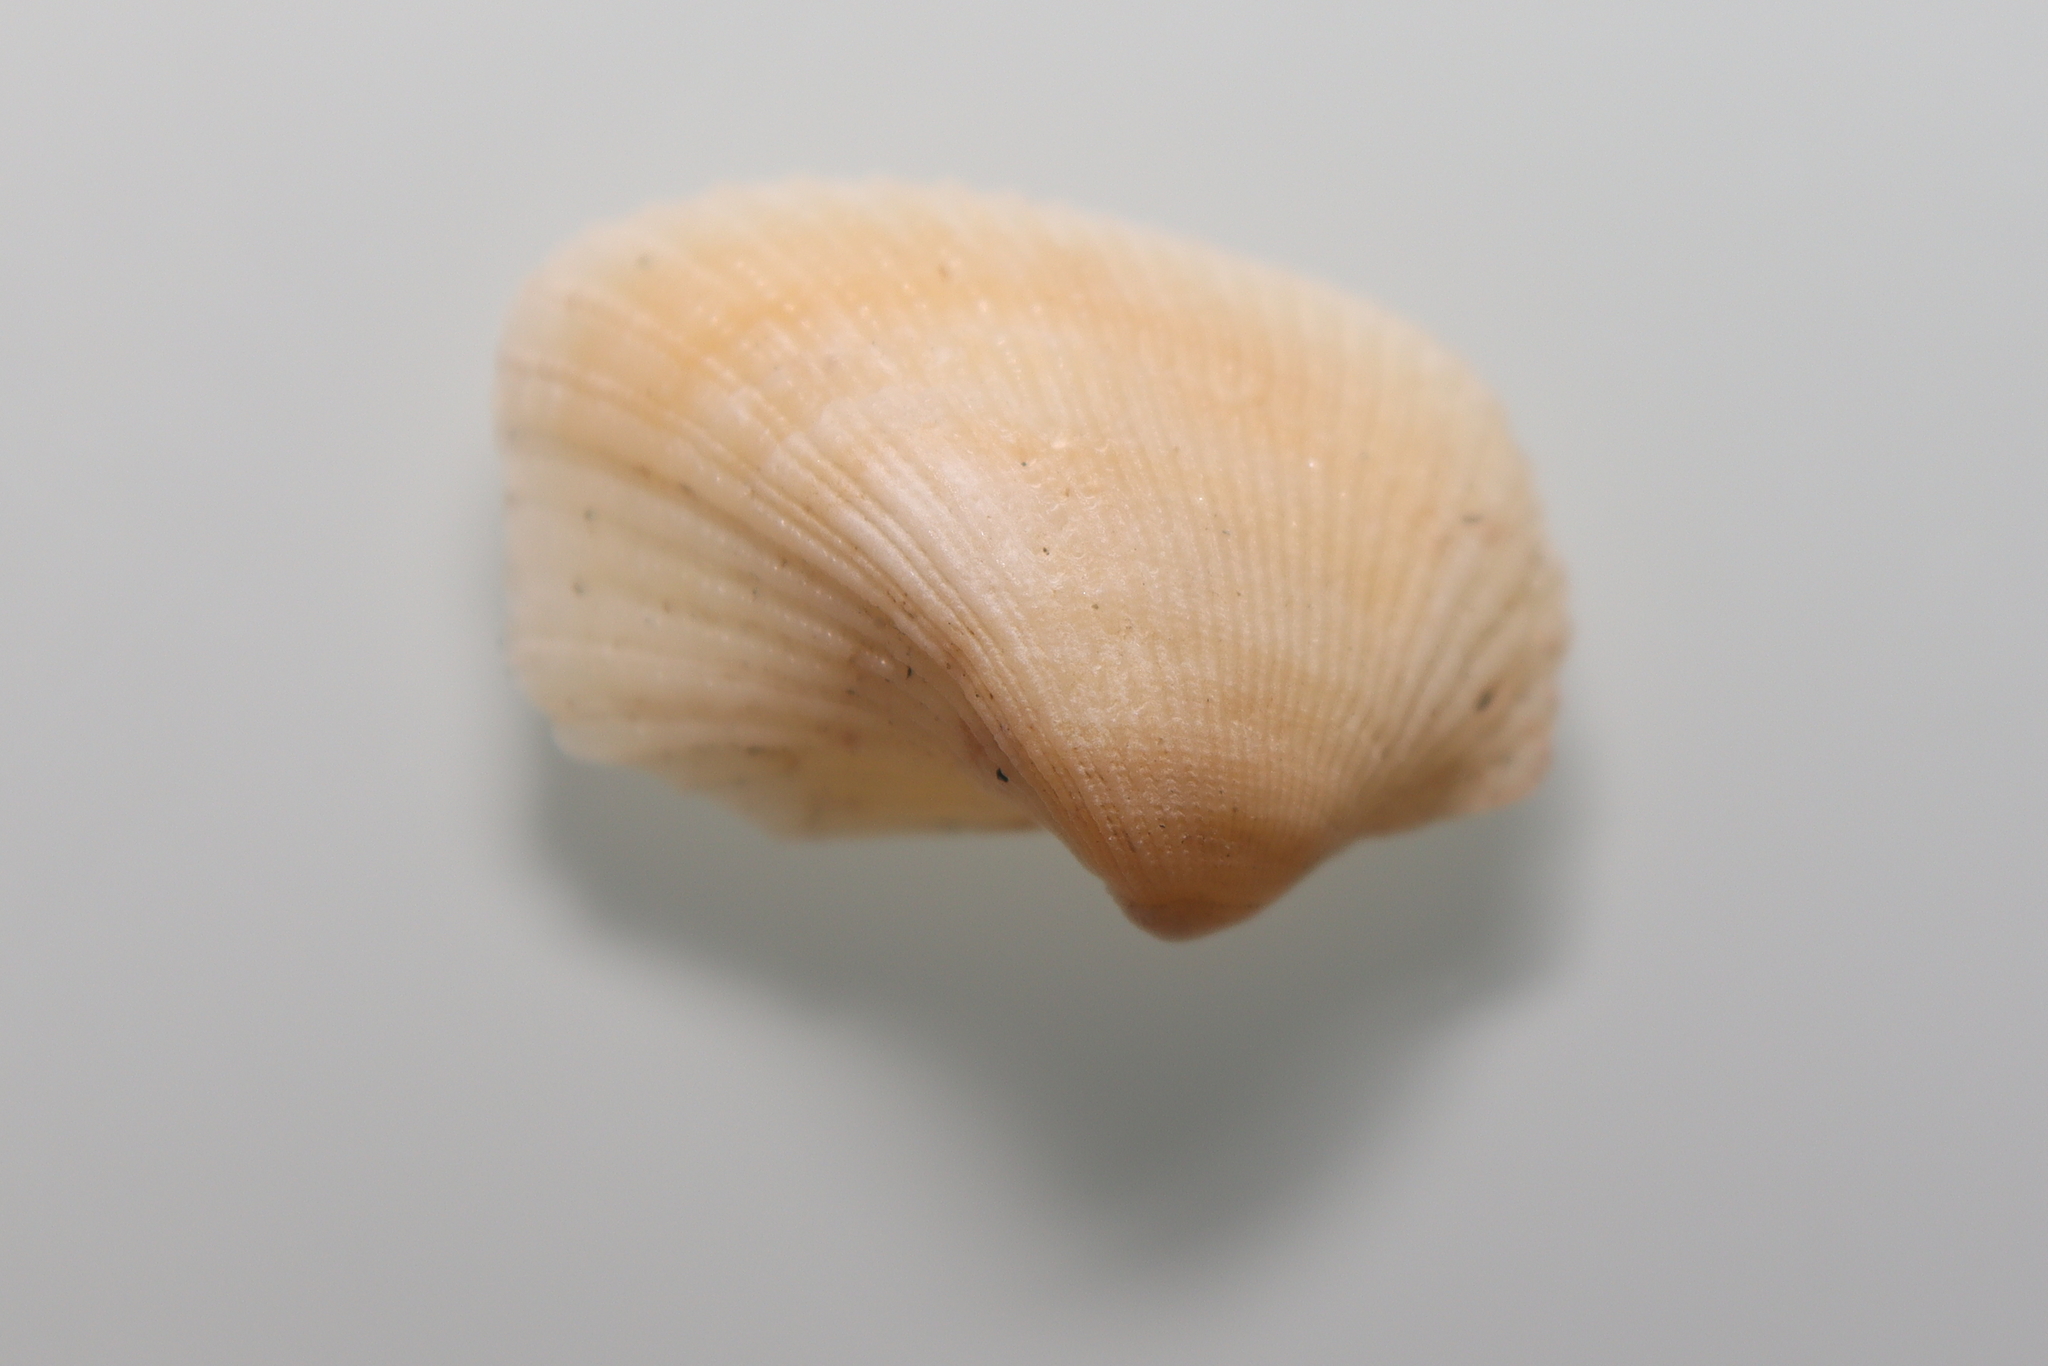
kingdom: Animalia
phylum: Mollusca
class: Bivalvia
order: Arcida
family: Noetiidae
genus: Sheldonella
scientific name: Sheldonella bisulcata
